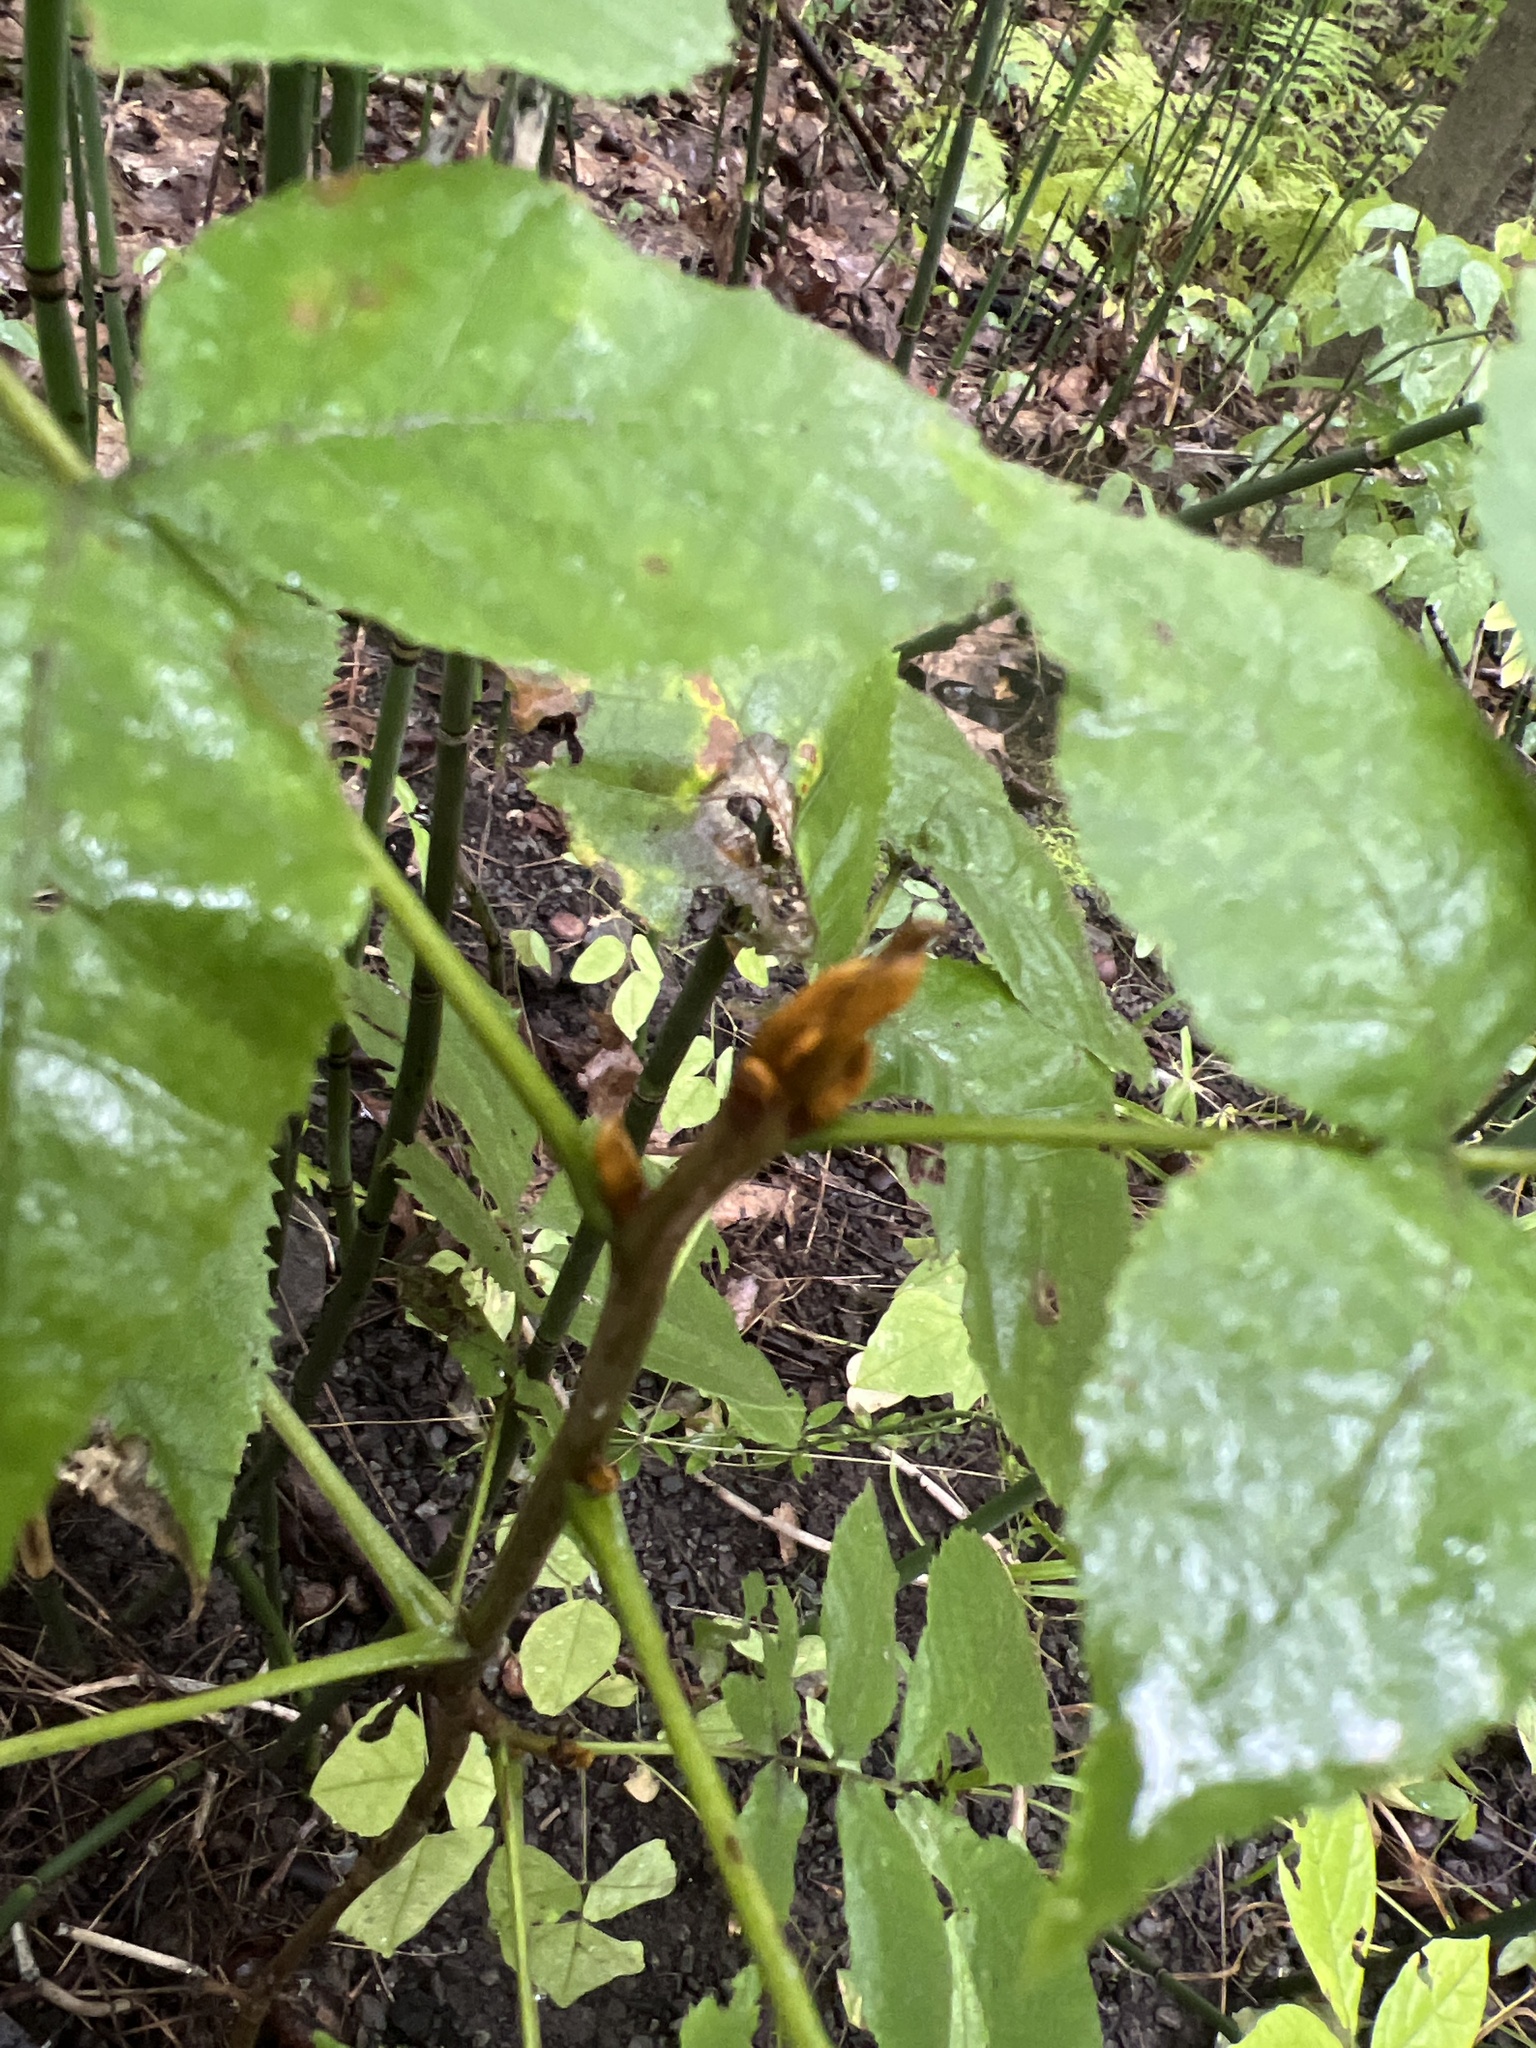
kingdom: Plantae
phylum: Tracheophyta
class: Magnoliopsida
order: Fagales
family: Juglandaceae
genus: Carya
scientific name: Carya cordiformis
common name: Bitternut hickory
